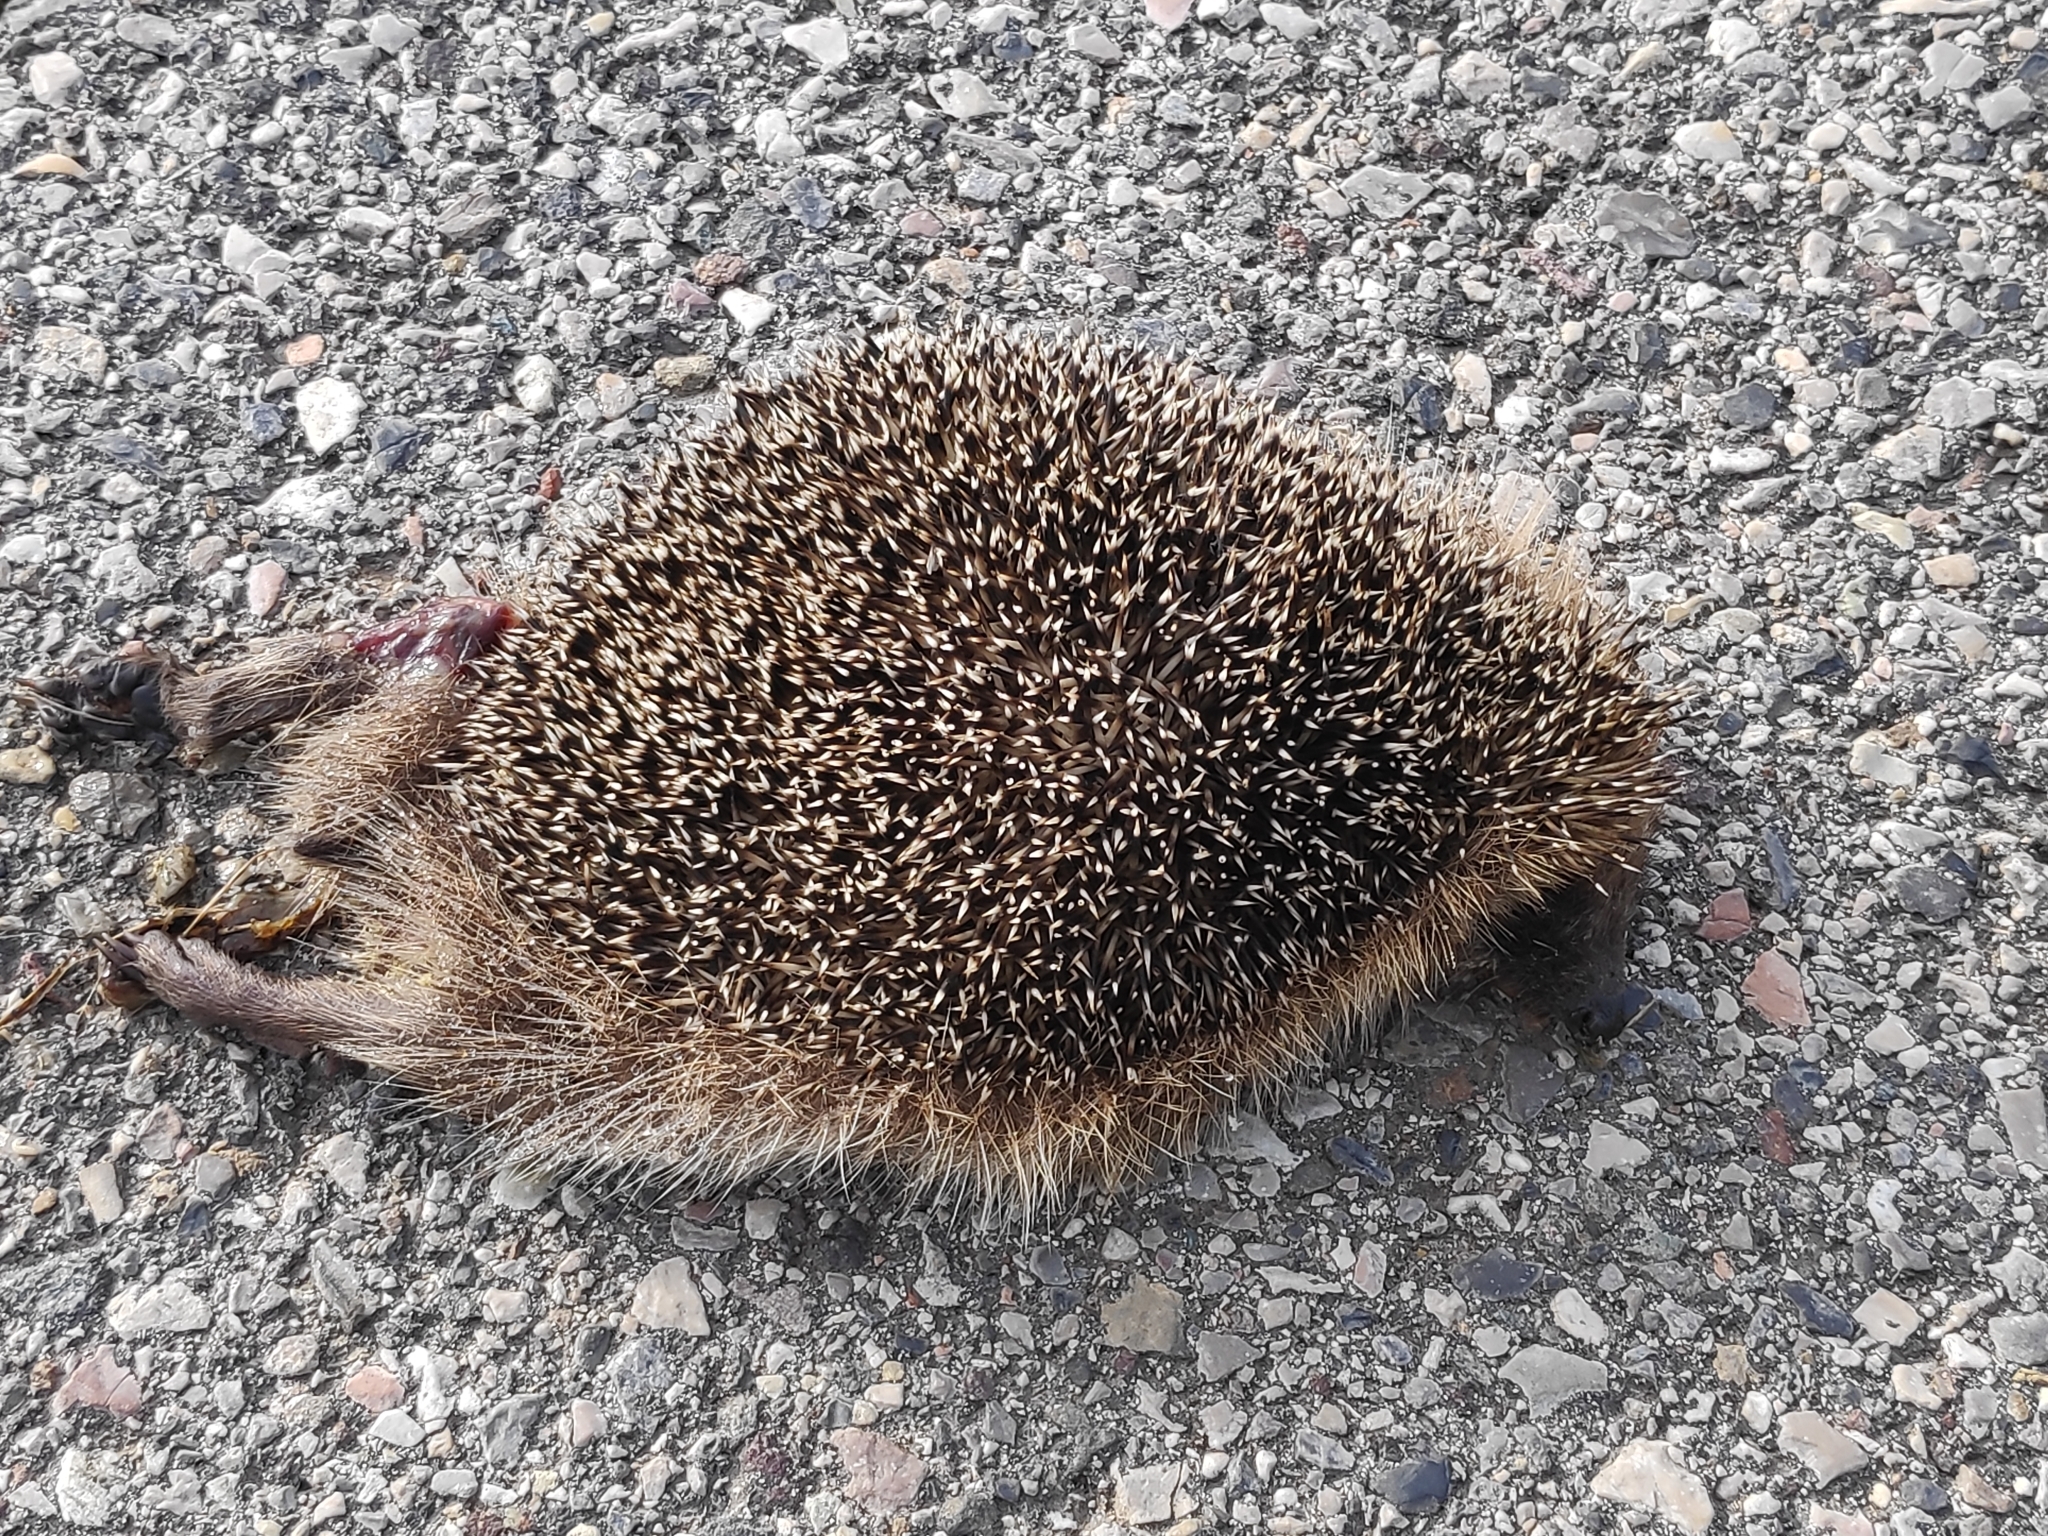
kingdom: Animalia
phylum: Chordata
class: Mammalia
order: Erinaceomorpha
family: Erinaceidae
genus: Erinaceus
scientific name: Erinaceus europaeus
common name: West european hedgehog
